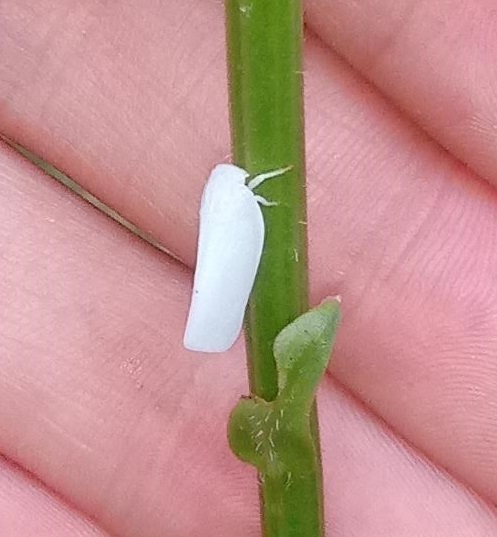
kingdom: Animalia
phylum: Arthropoda
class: Insecta
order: Hemiptera
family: Flatidae
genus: Flatormenis
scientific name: Flatormenis proxima
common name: Northern flatid planthopper
